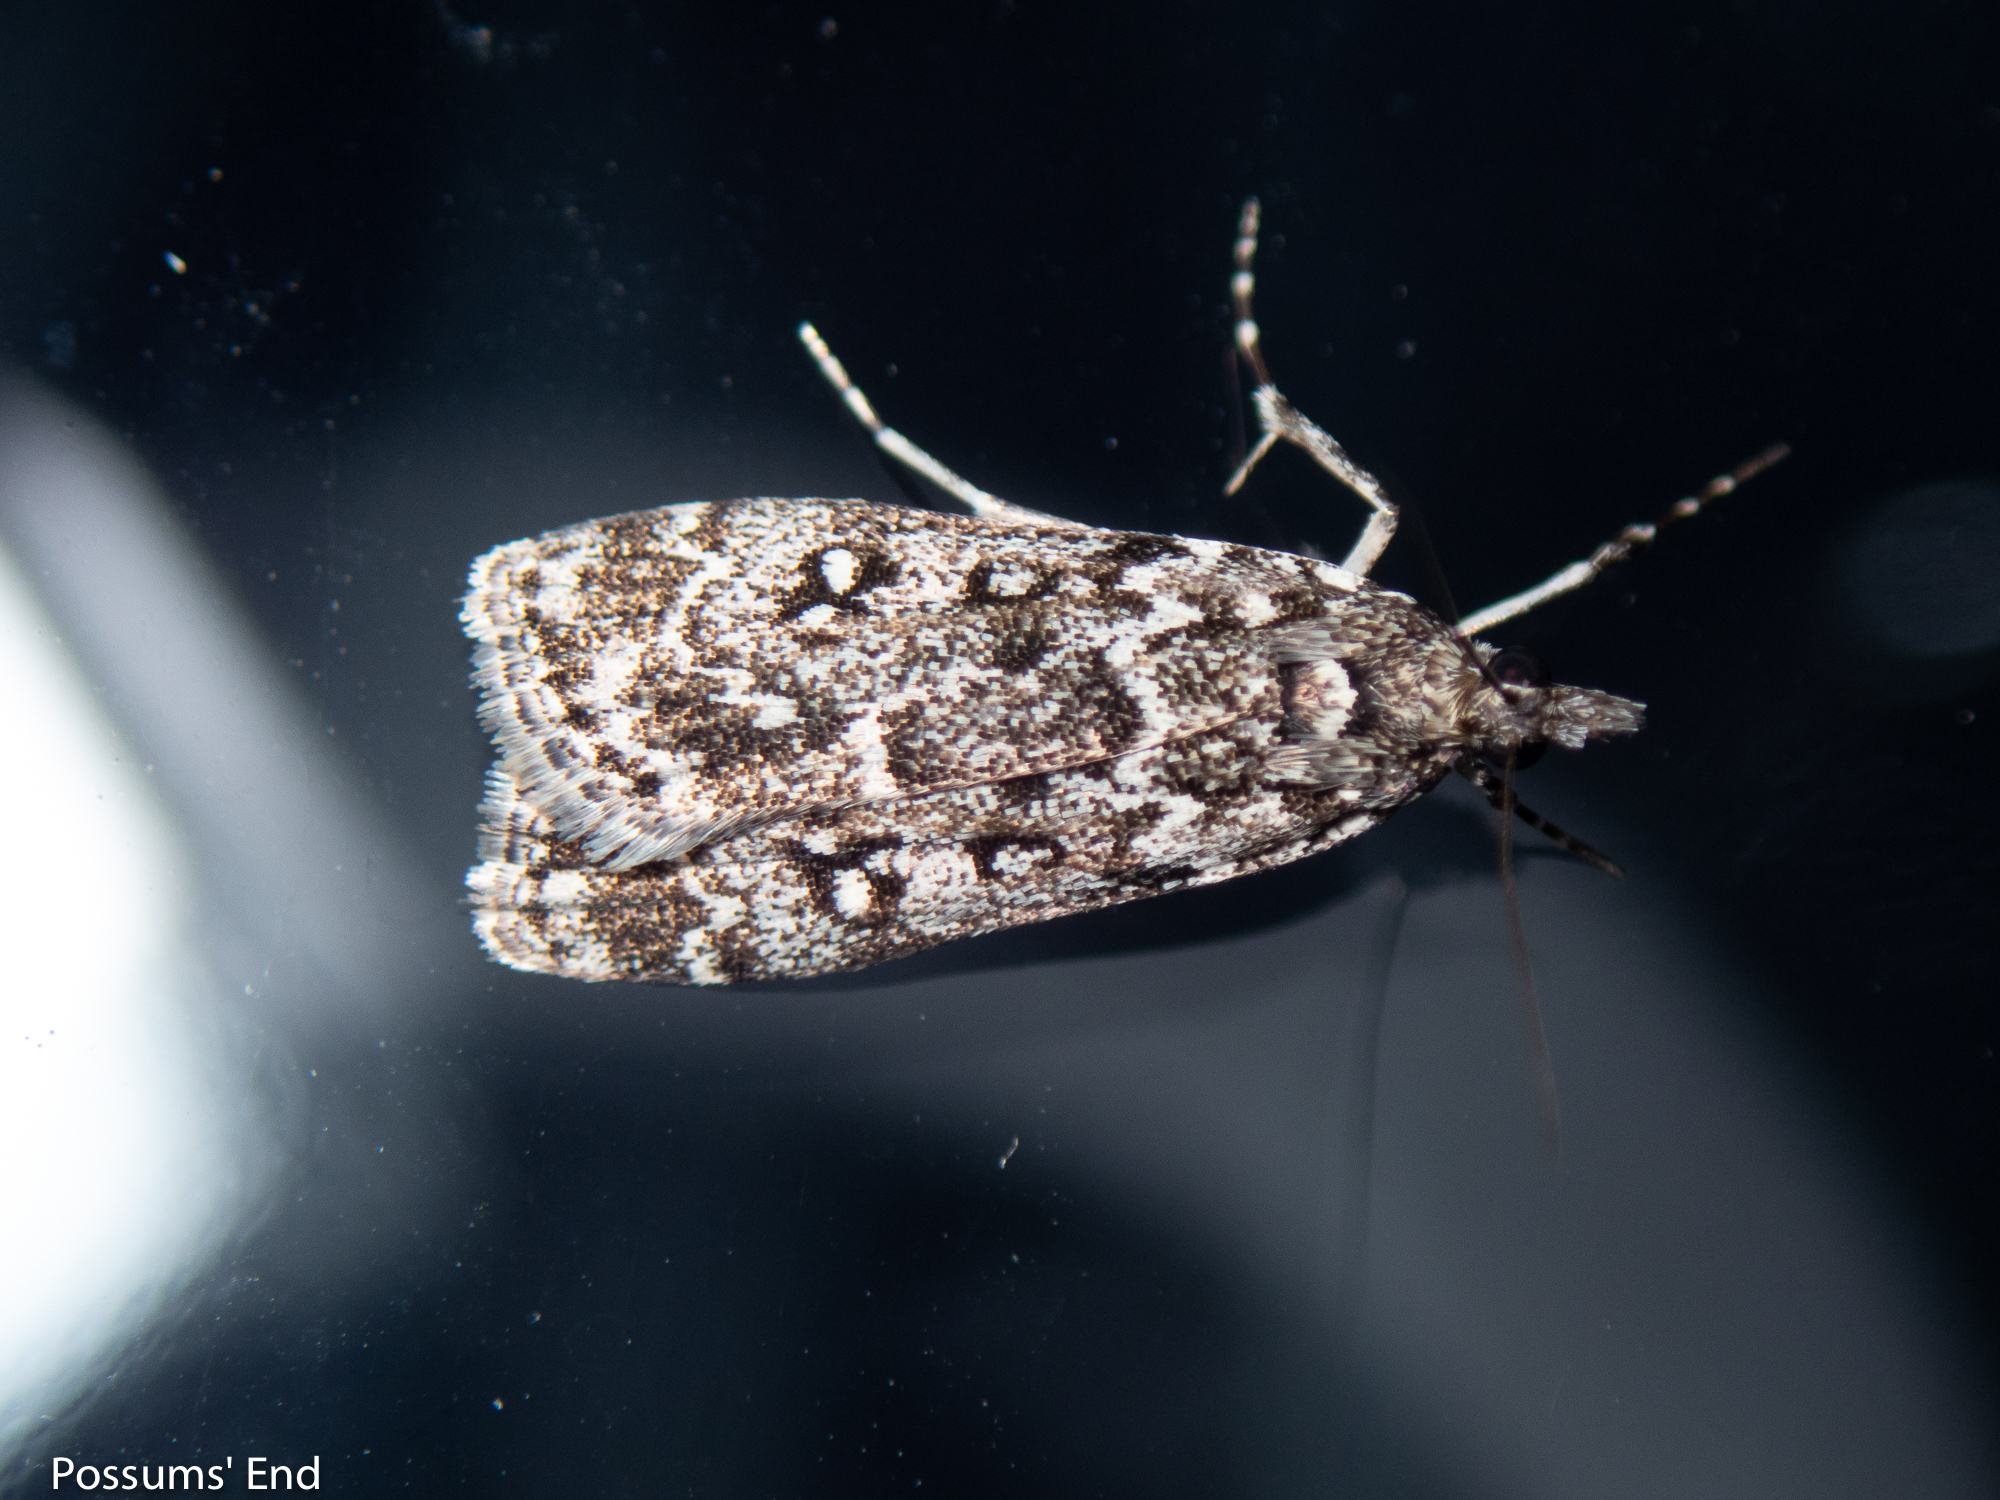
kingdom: Animalia
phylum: Arthropoda
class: Insecta
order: Lepidoptera
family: Crambidae
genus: Eudonia
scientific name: Eudonia philerga
